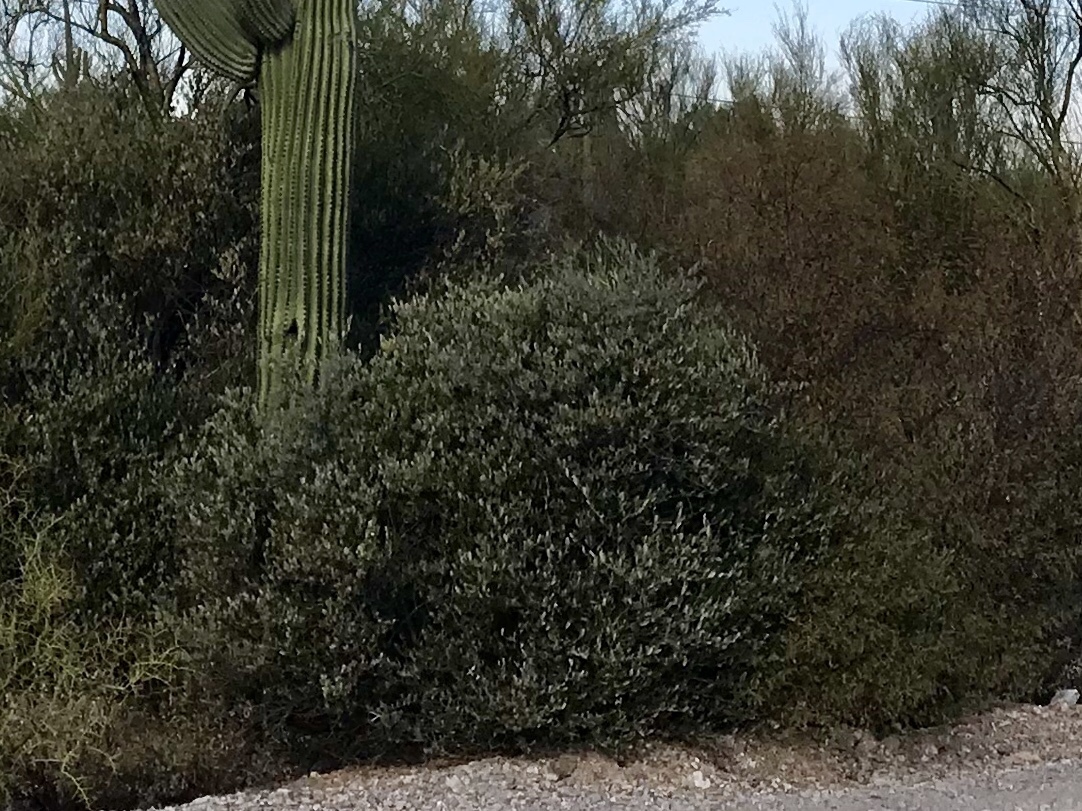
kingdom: Plantae
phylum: Tracheophyta
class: Magnoliopsida
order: Caryophyllales
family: Simmondsiaceae
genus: Simmondsia
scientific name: Simmondsia chinensis
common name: Jojoba
